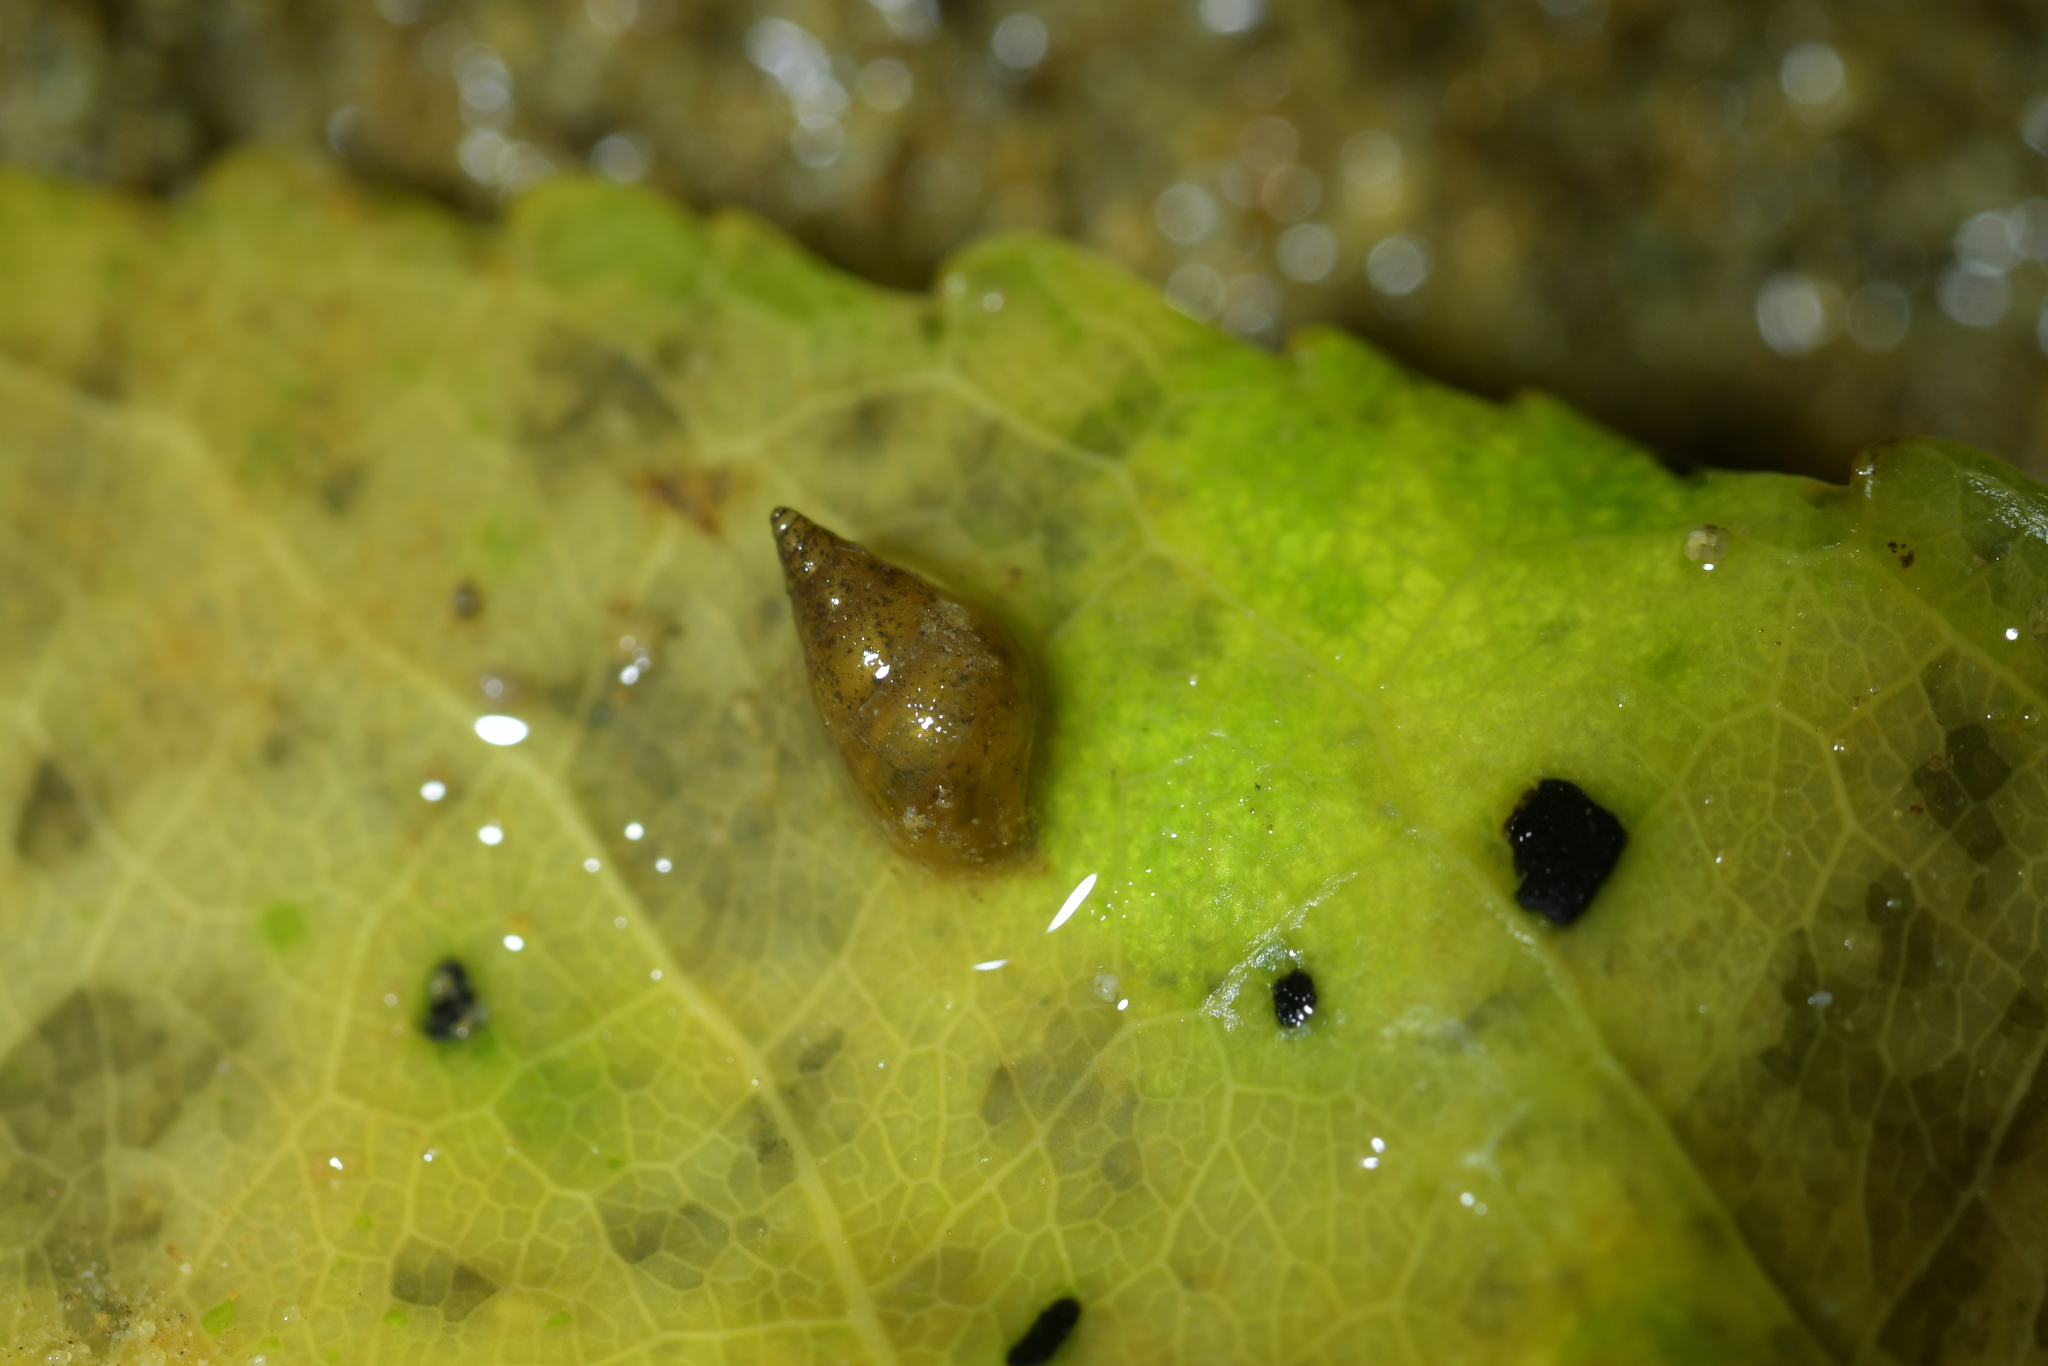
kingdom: Animalia
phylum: Mollusca
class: Gastropoda
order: Littorinimorpha
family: Tateidae
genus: Potamopyrgus
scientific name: Potamopyrgus antipodarum
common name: Jenkins' spire snail
